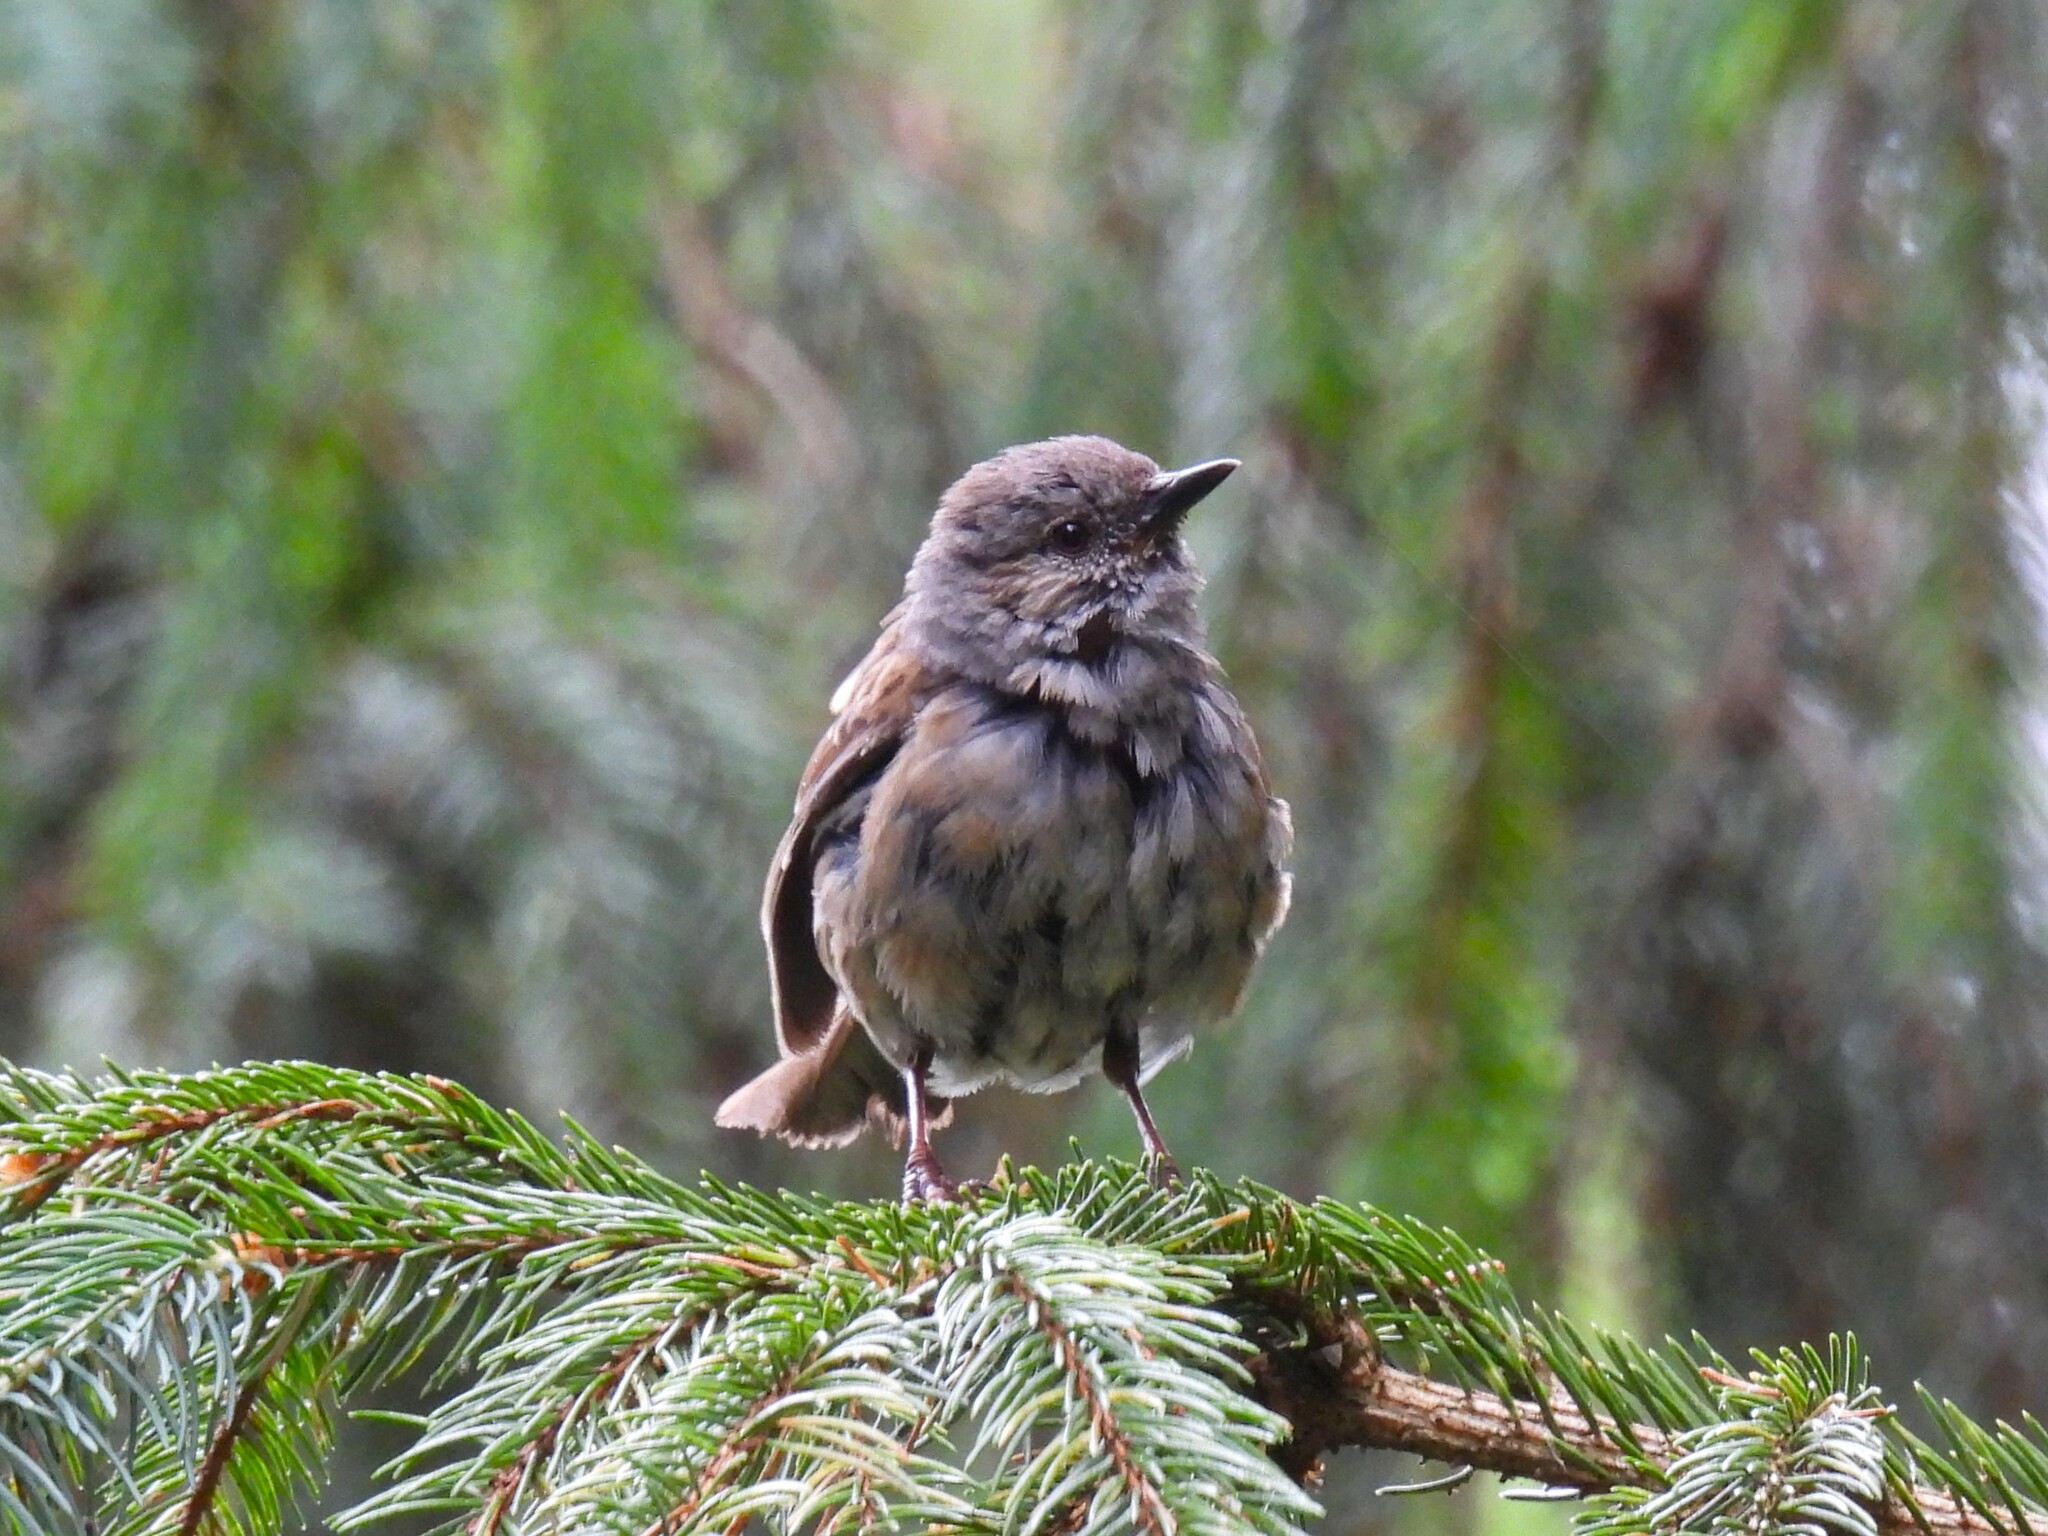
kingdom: Animalia
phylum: Chordata
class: Aves
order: Passeriformes
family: Prunellidae
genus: Prunella
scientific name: Prunella modularis
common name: Dunnock
